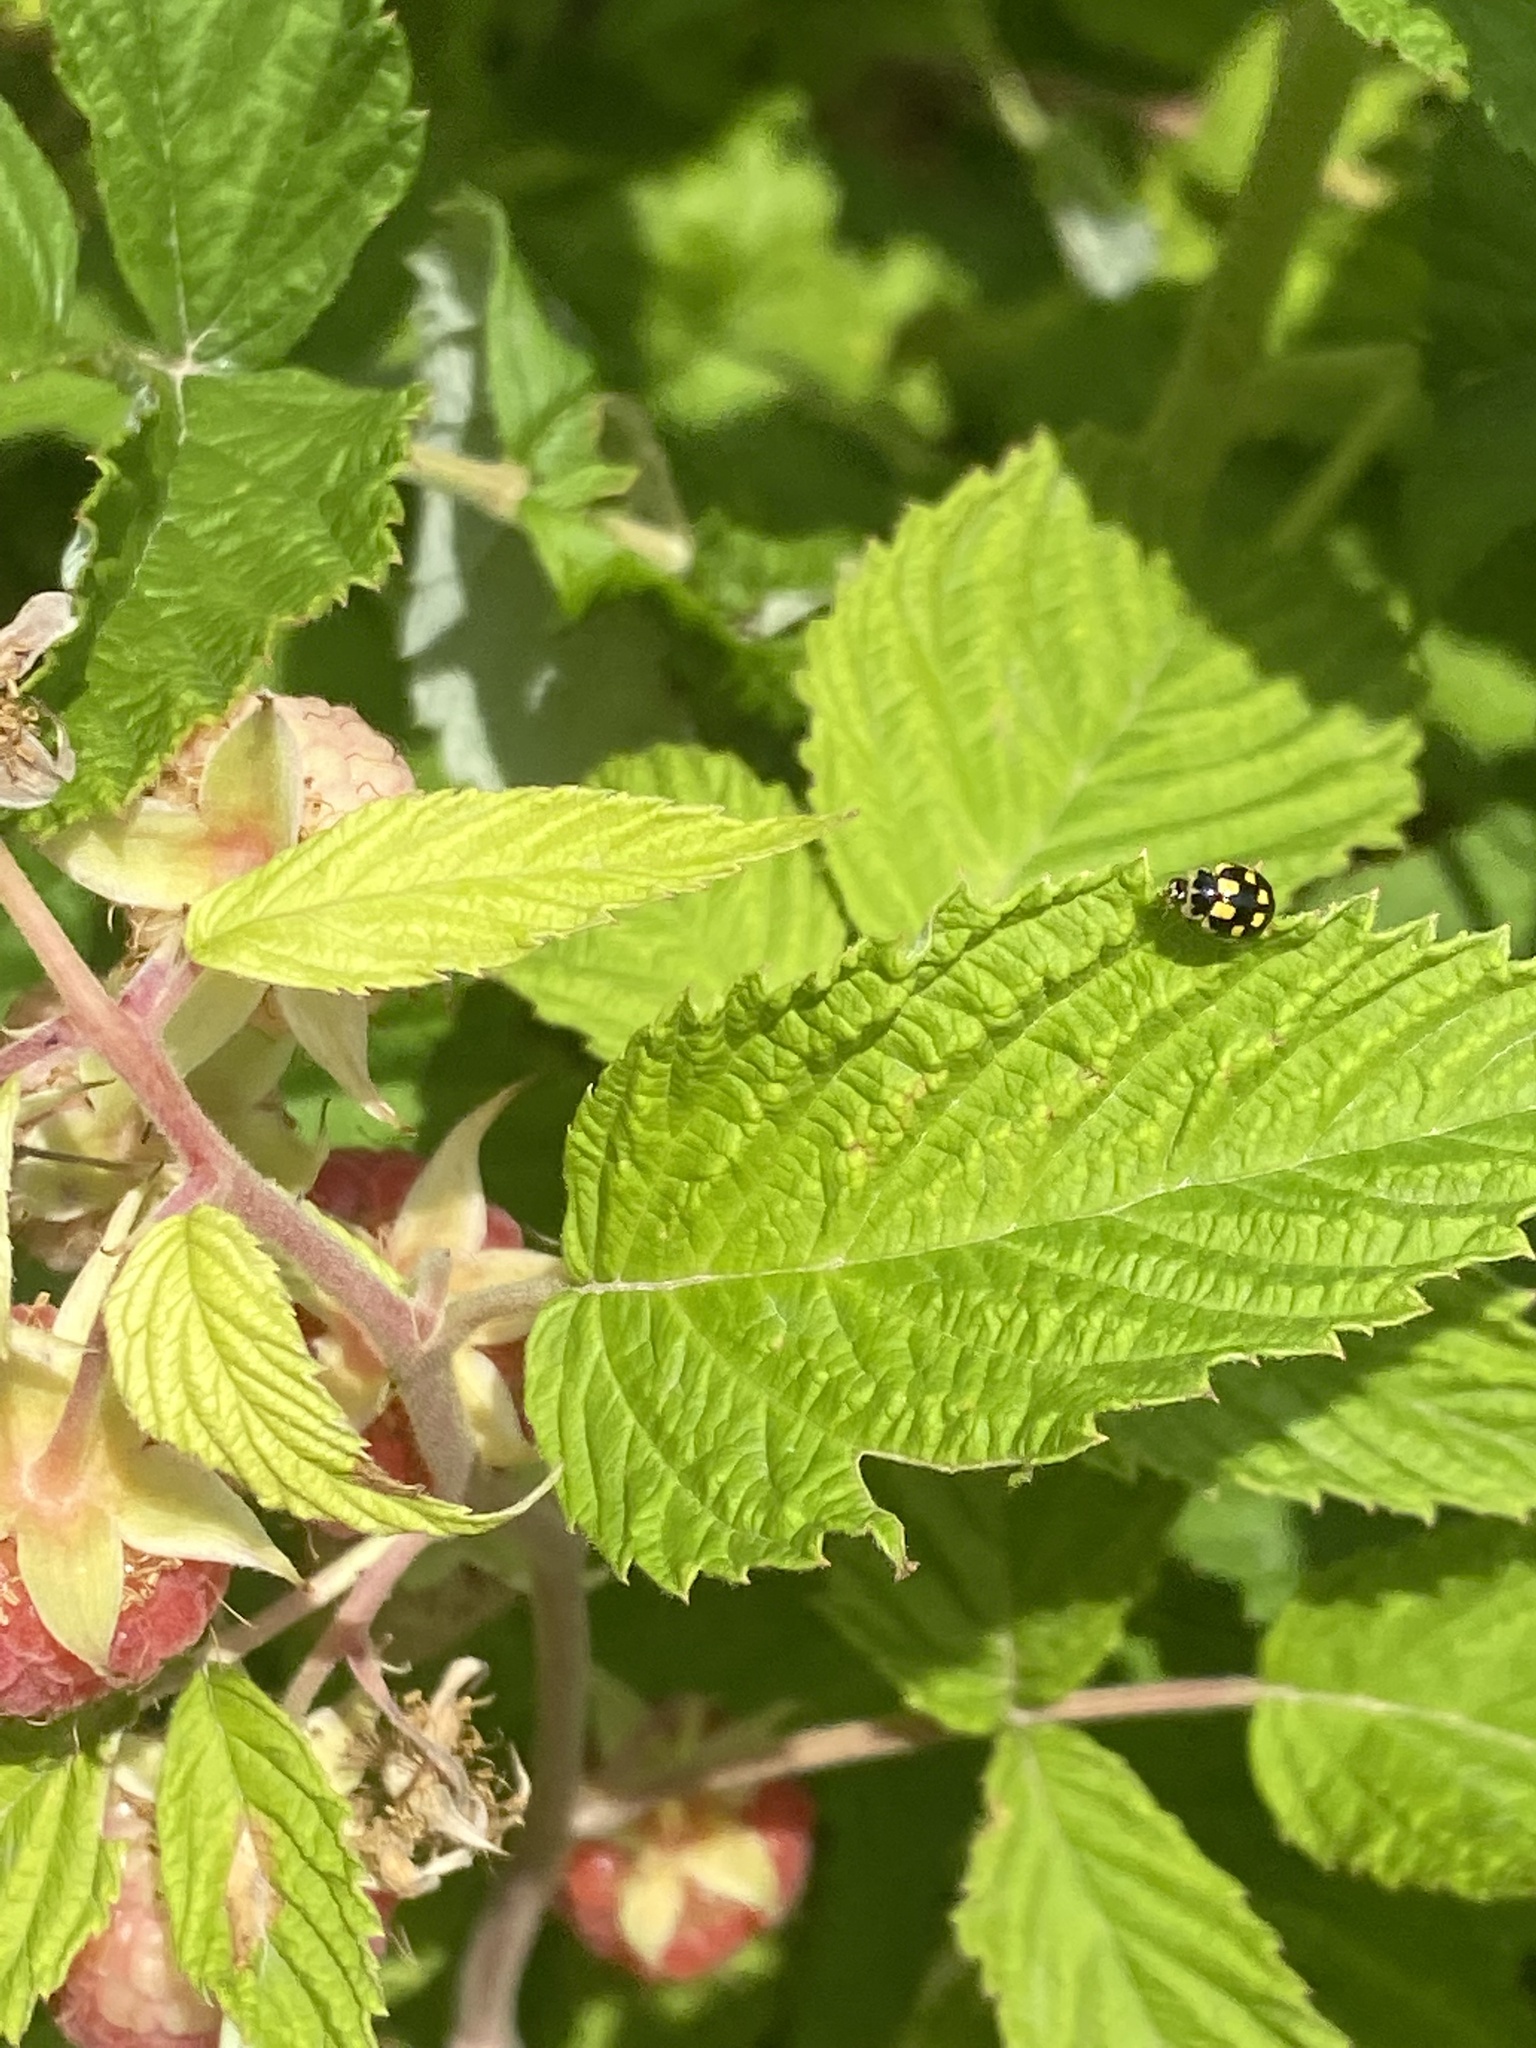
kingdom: Animalia
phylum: Arthropoda
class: Insecta
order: Coleoptera
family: Coccinellidae
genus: Propylaea
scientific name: Propylaea quatuordecimpunctata
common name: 14-spotted ladybird beetle
